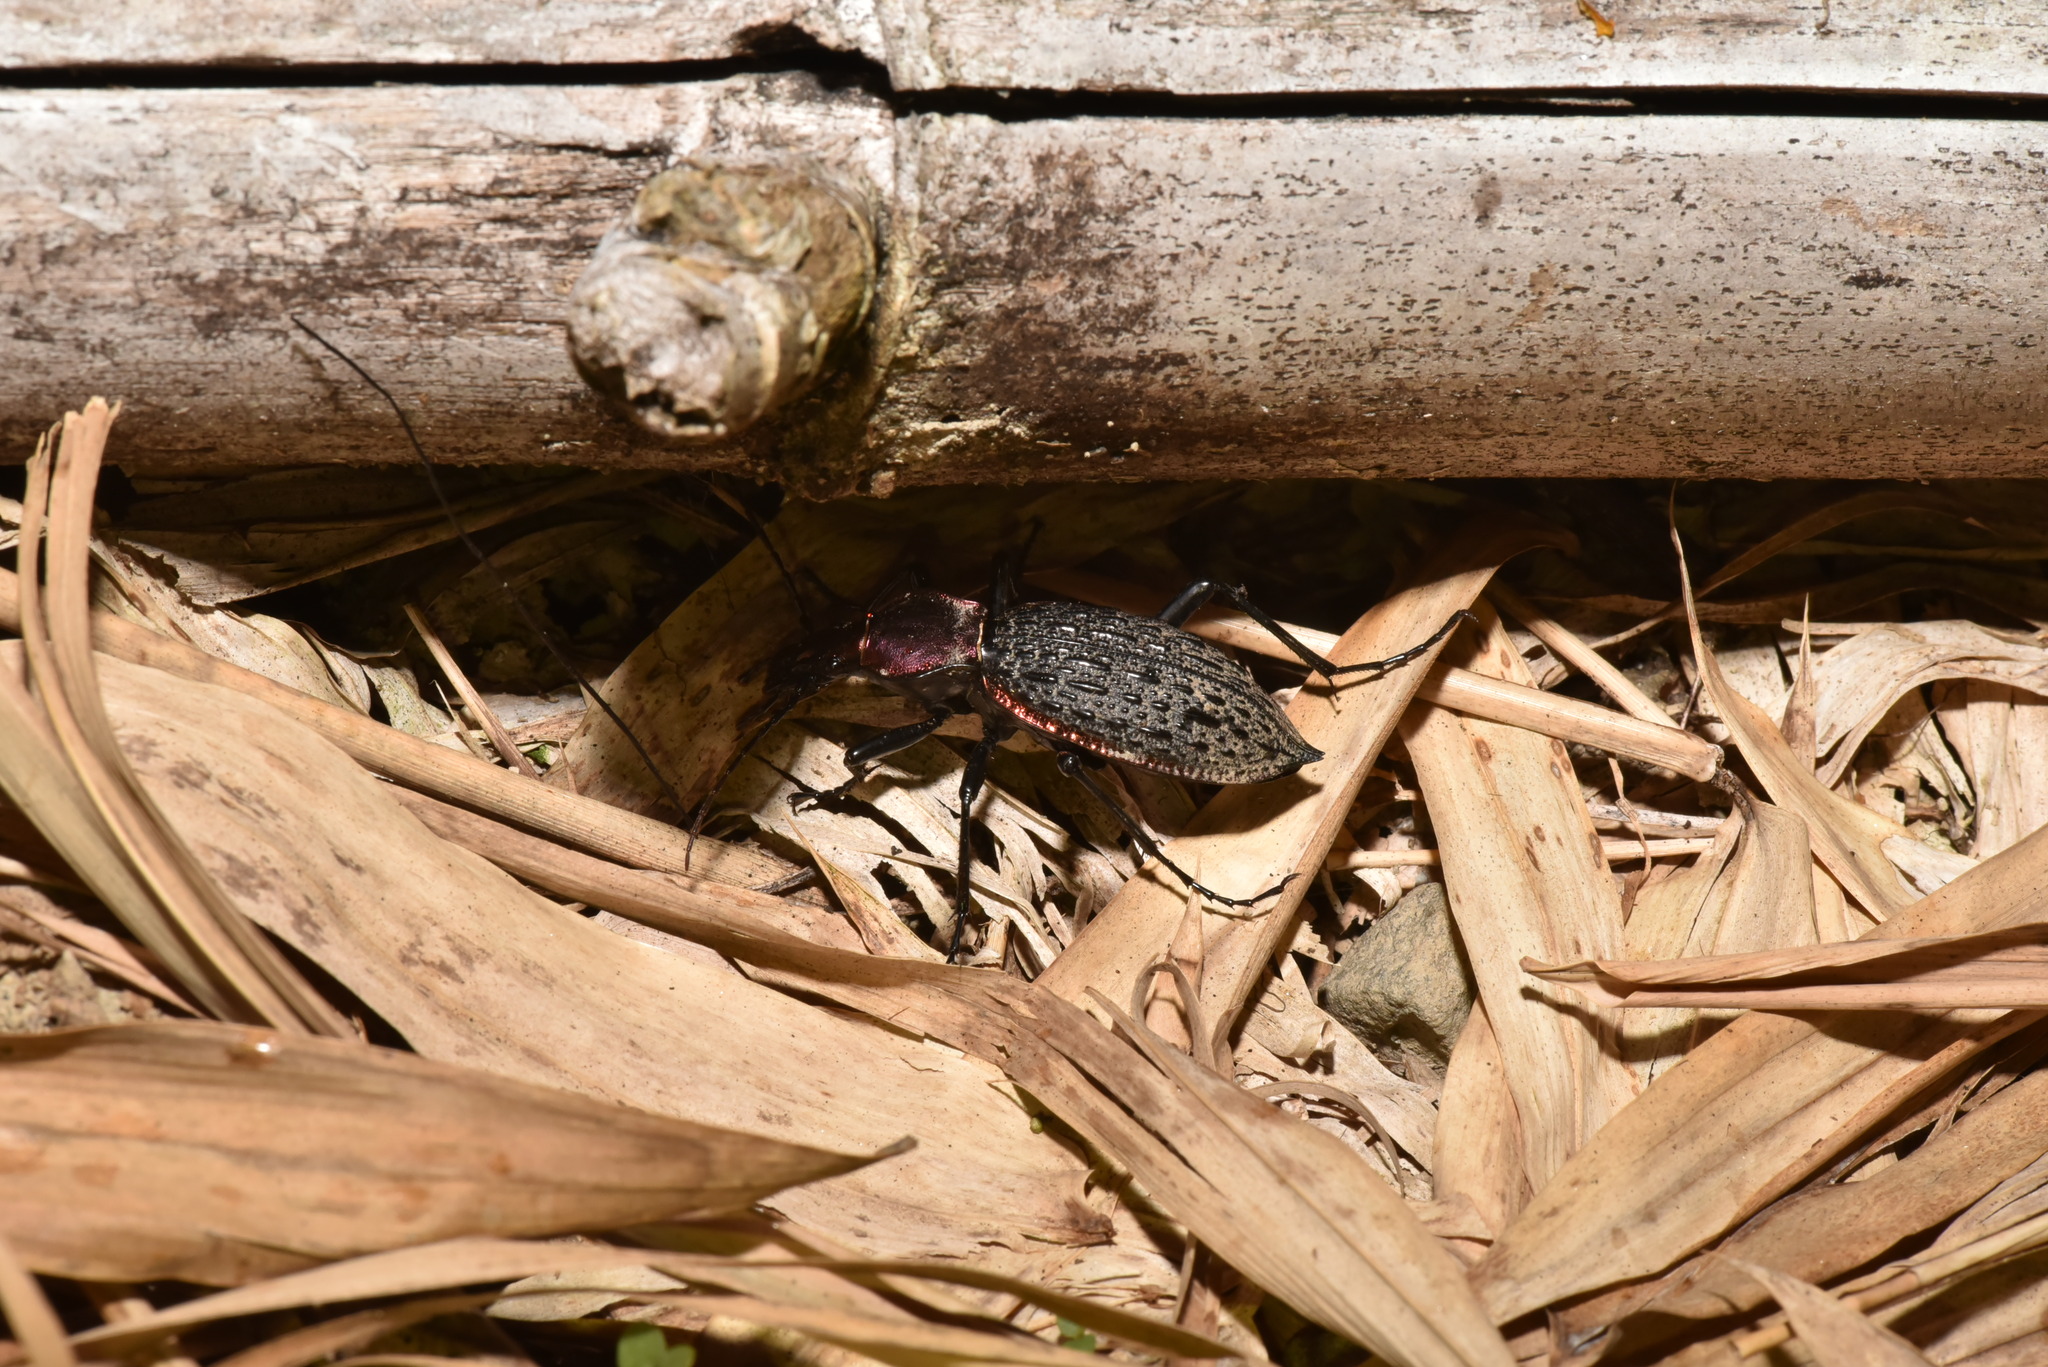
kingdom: Animalia
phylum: Arthropoda
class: Insecta
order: Coleoptera
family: Carabidae
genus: Carabus
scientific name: Carabus nankotaizanus
